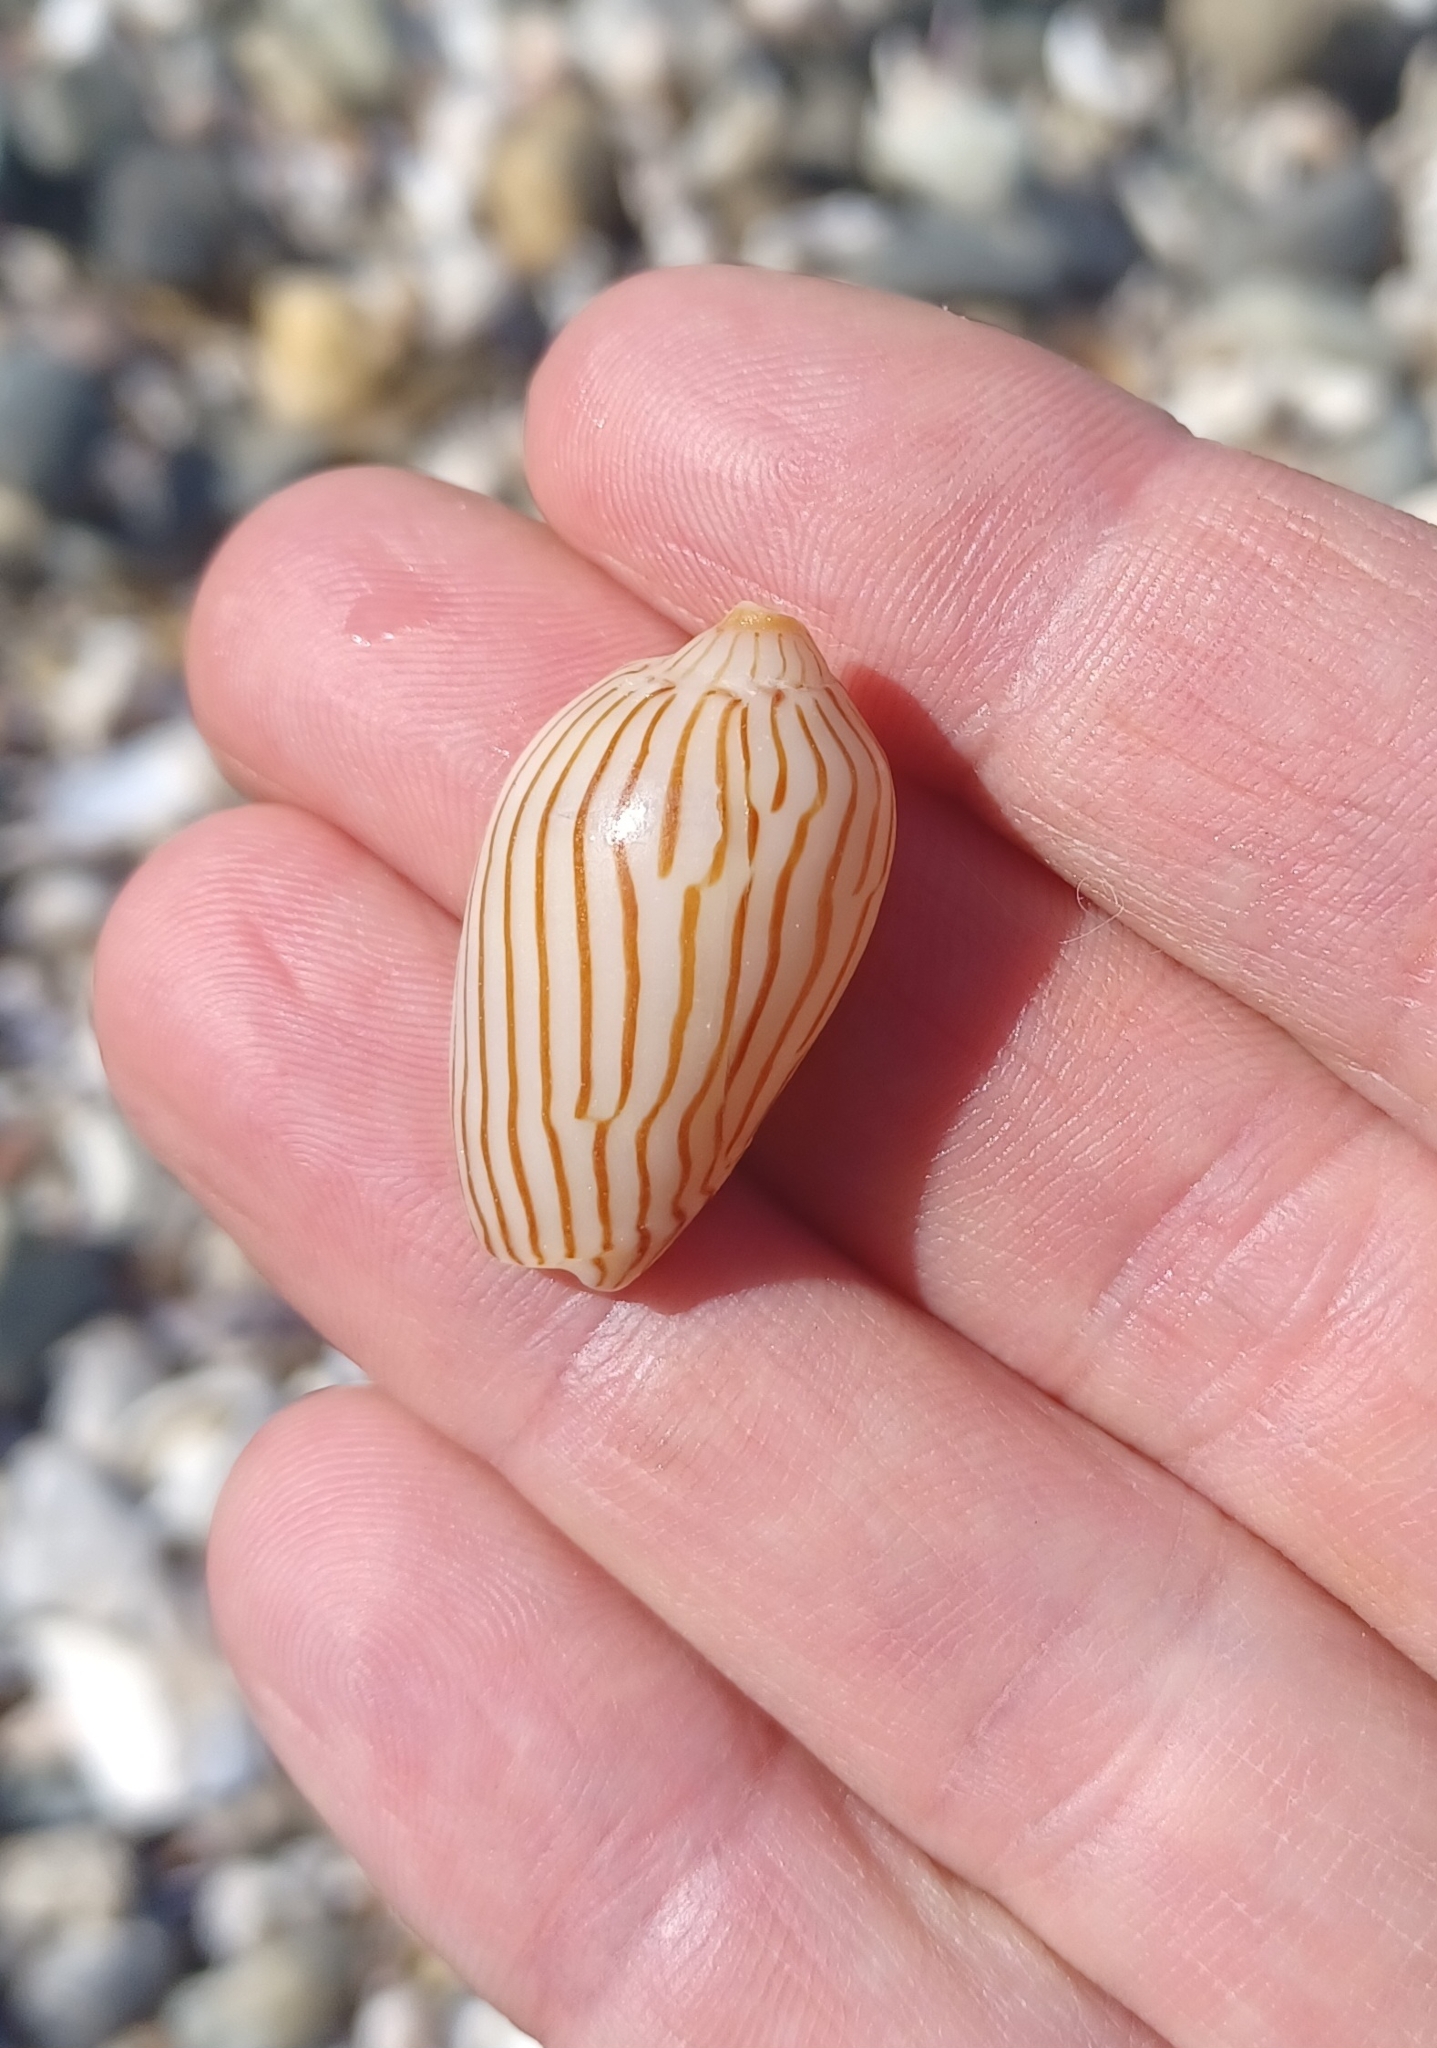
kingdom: Animalia
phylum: Mollusca
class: Gastropoda
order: Neogastropoda
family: Volutidae
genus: Amoria
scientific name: Amoria zebra
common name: Zebra volute
